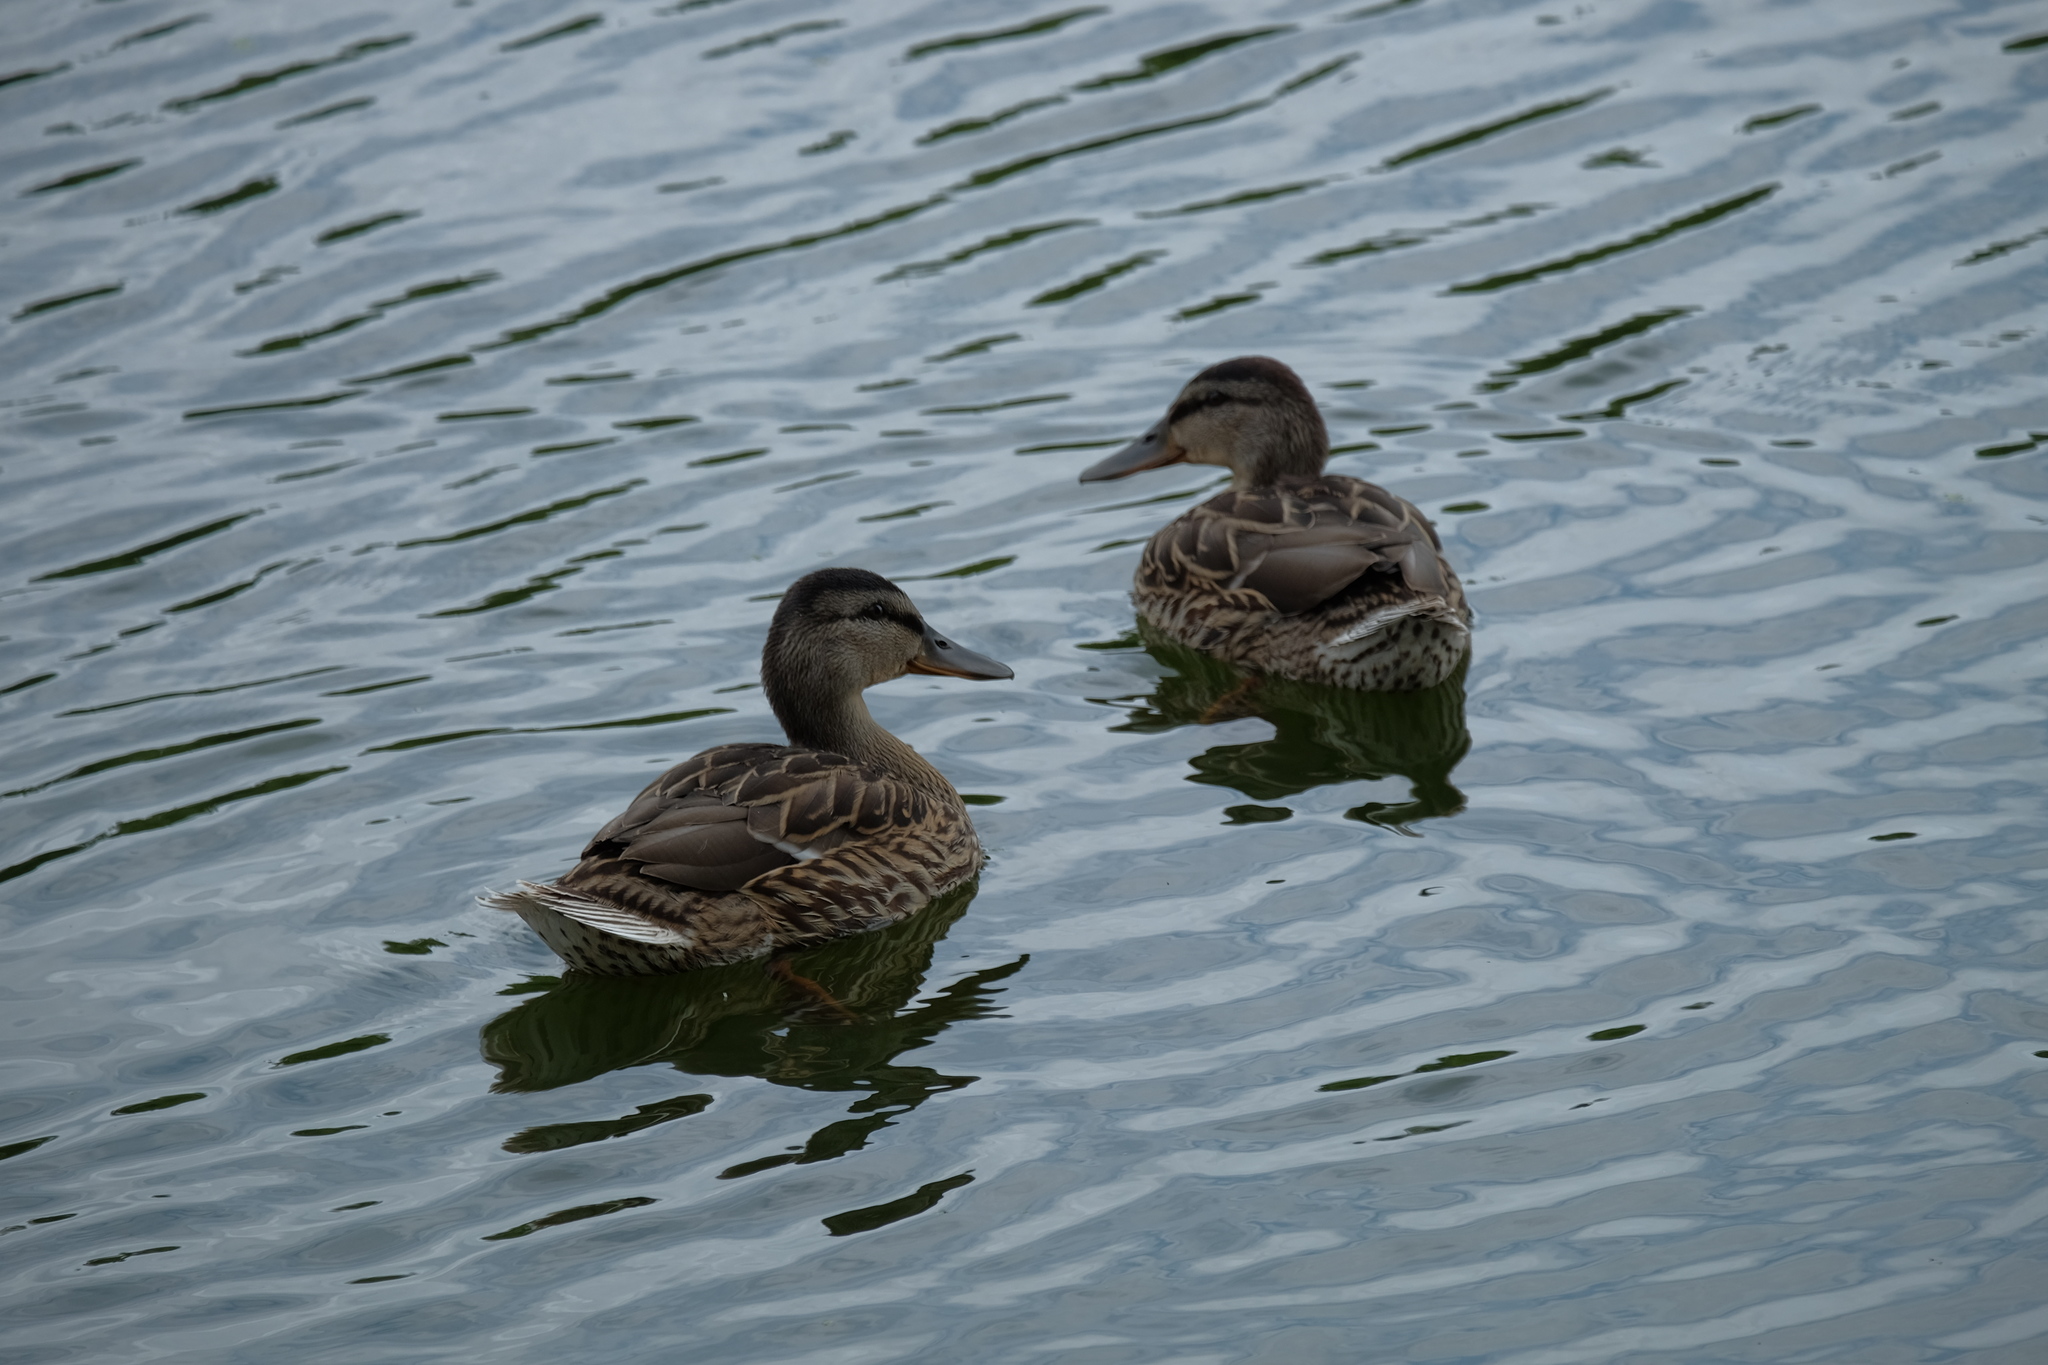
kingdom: Animalia
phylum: Chordata
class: Aves
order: Anseriformes
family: Anatidae
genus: Anas
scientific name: Anas platyrhynchos
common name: Mallard
